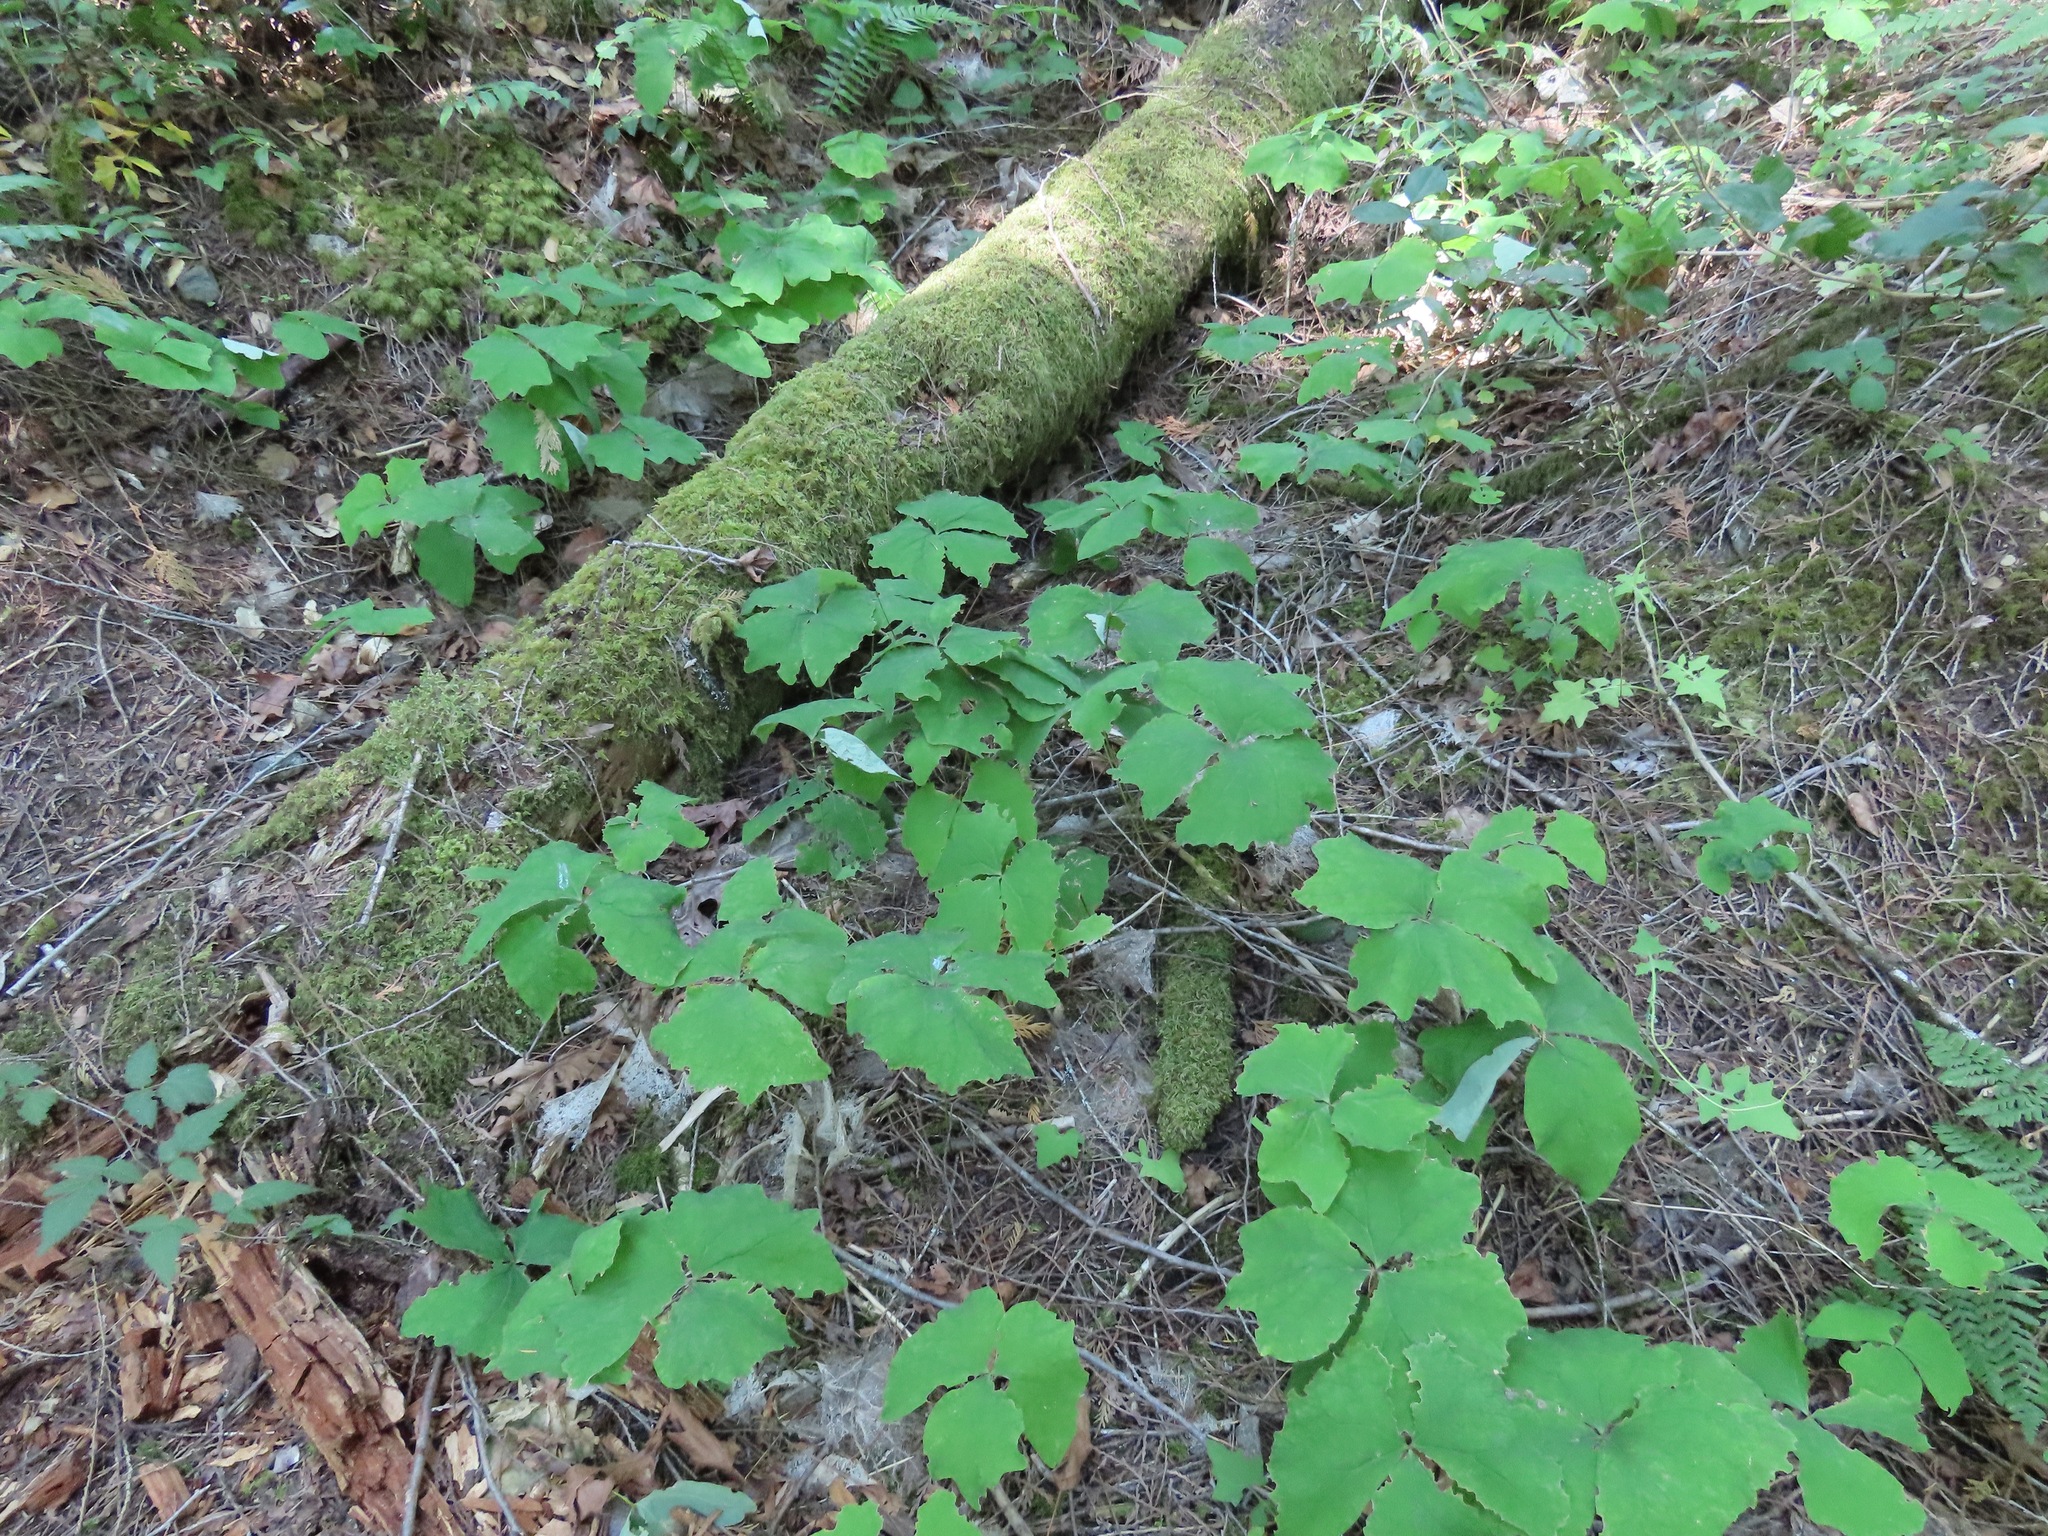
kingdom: Plantae
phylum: Tracheophyta
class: Magnoliopsida
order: Ranunculales
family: Berberidaceae
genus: Achlys
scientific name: Achlys triphylla
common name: Vanilla-leaf
